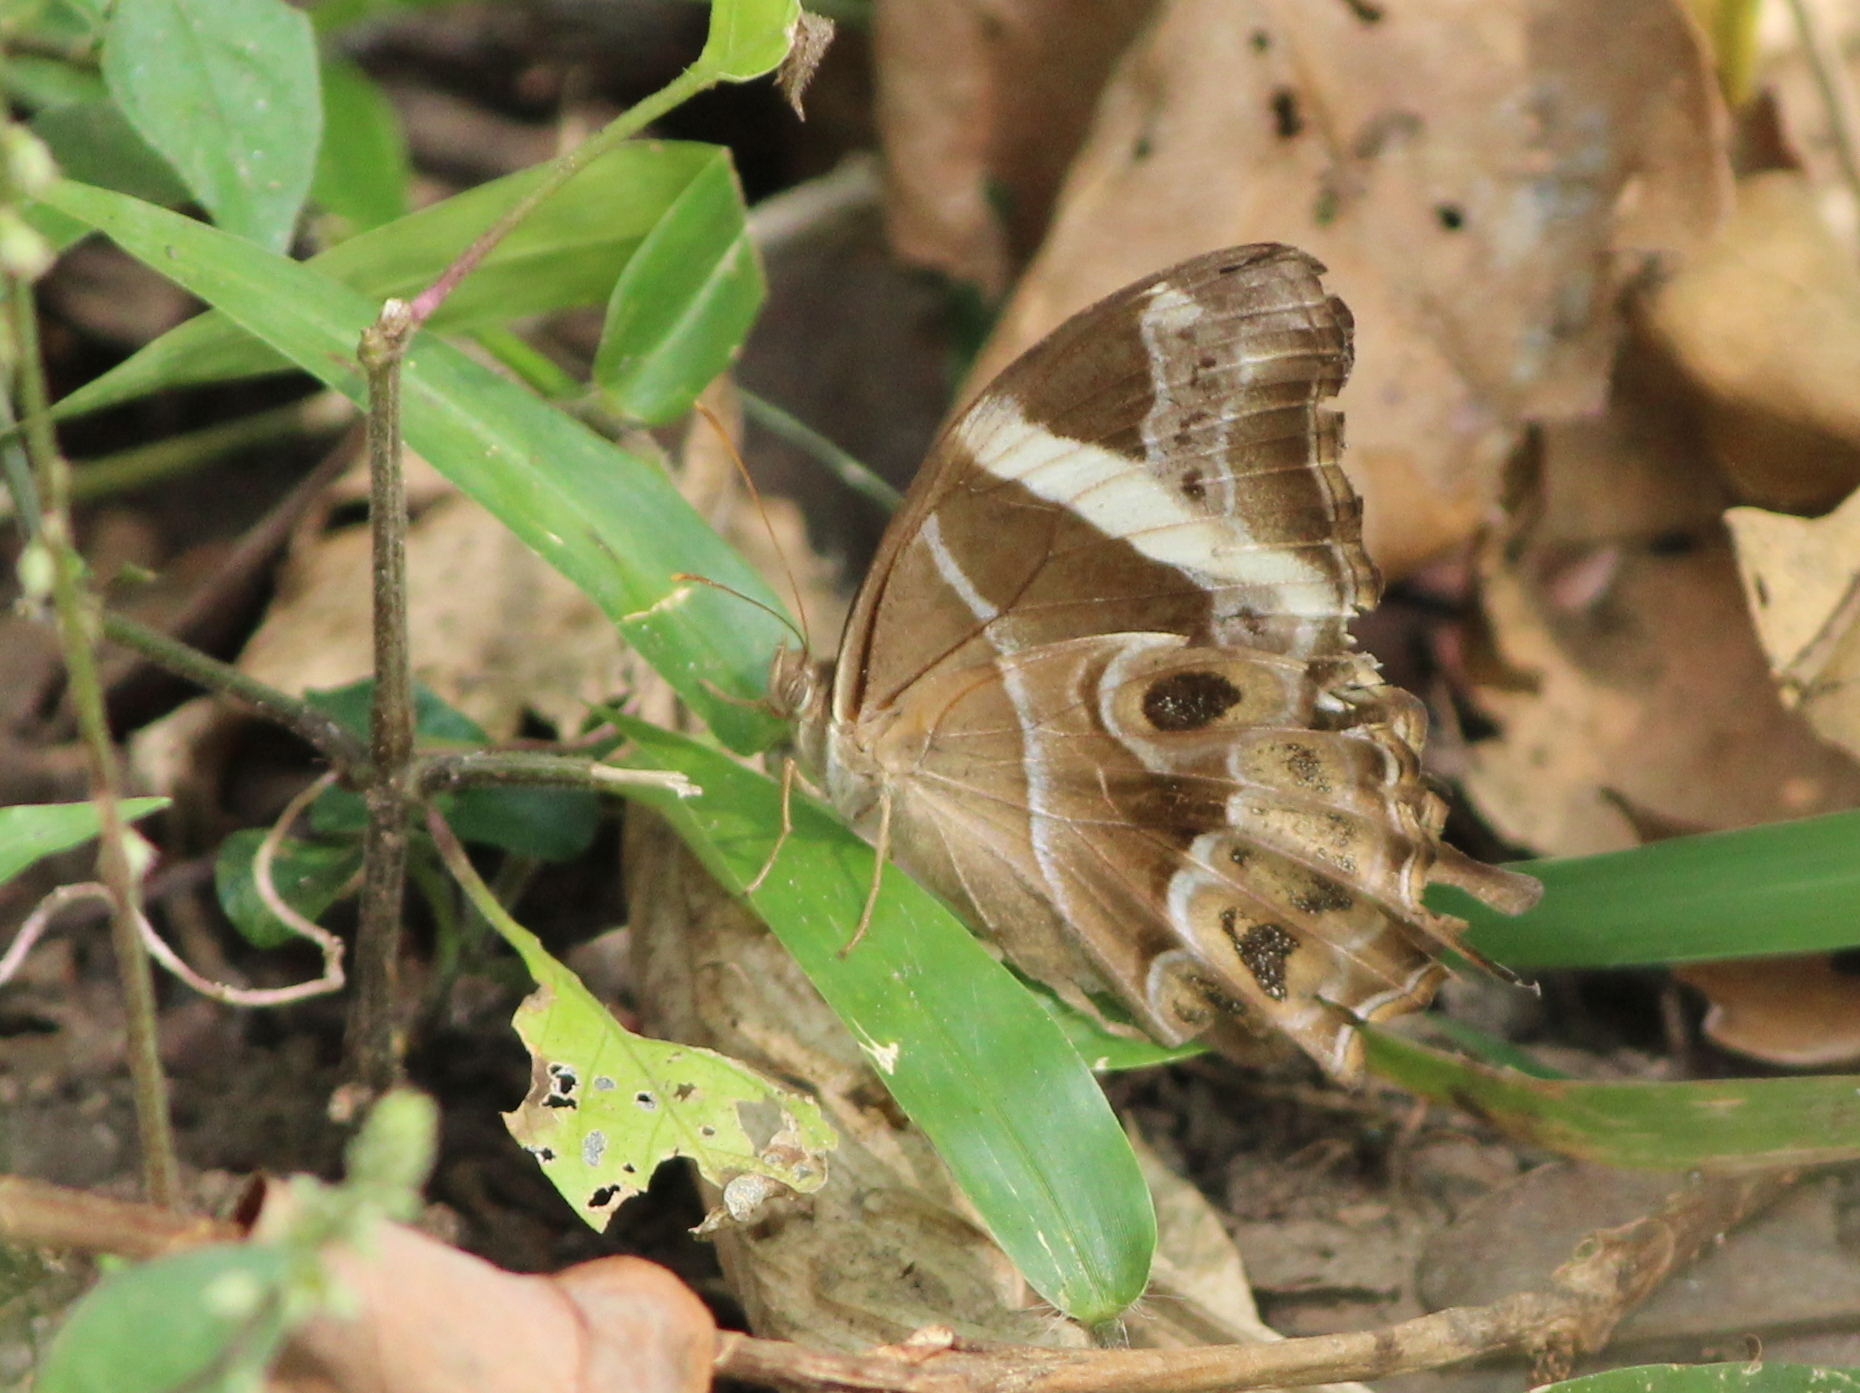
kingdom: Animalia
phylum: Arthropoda
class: Insecta
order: Lepidoptera
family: Nymphalidae
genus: Lethe
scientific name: Lethe europa
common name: Bamboo treebrown
